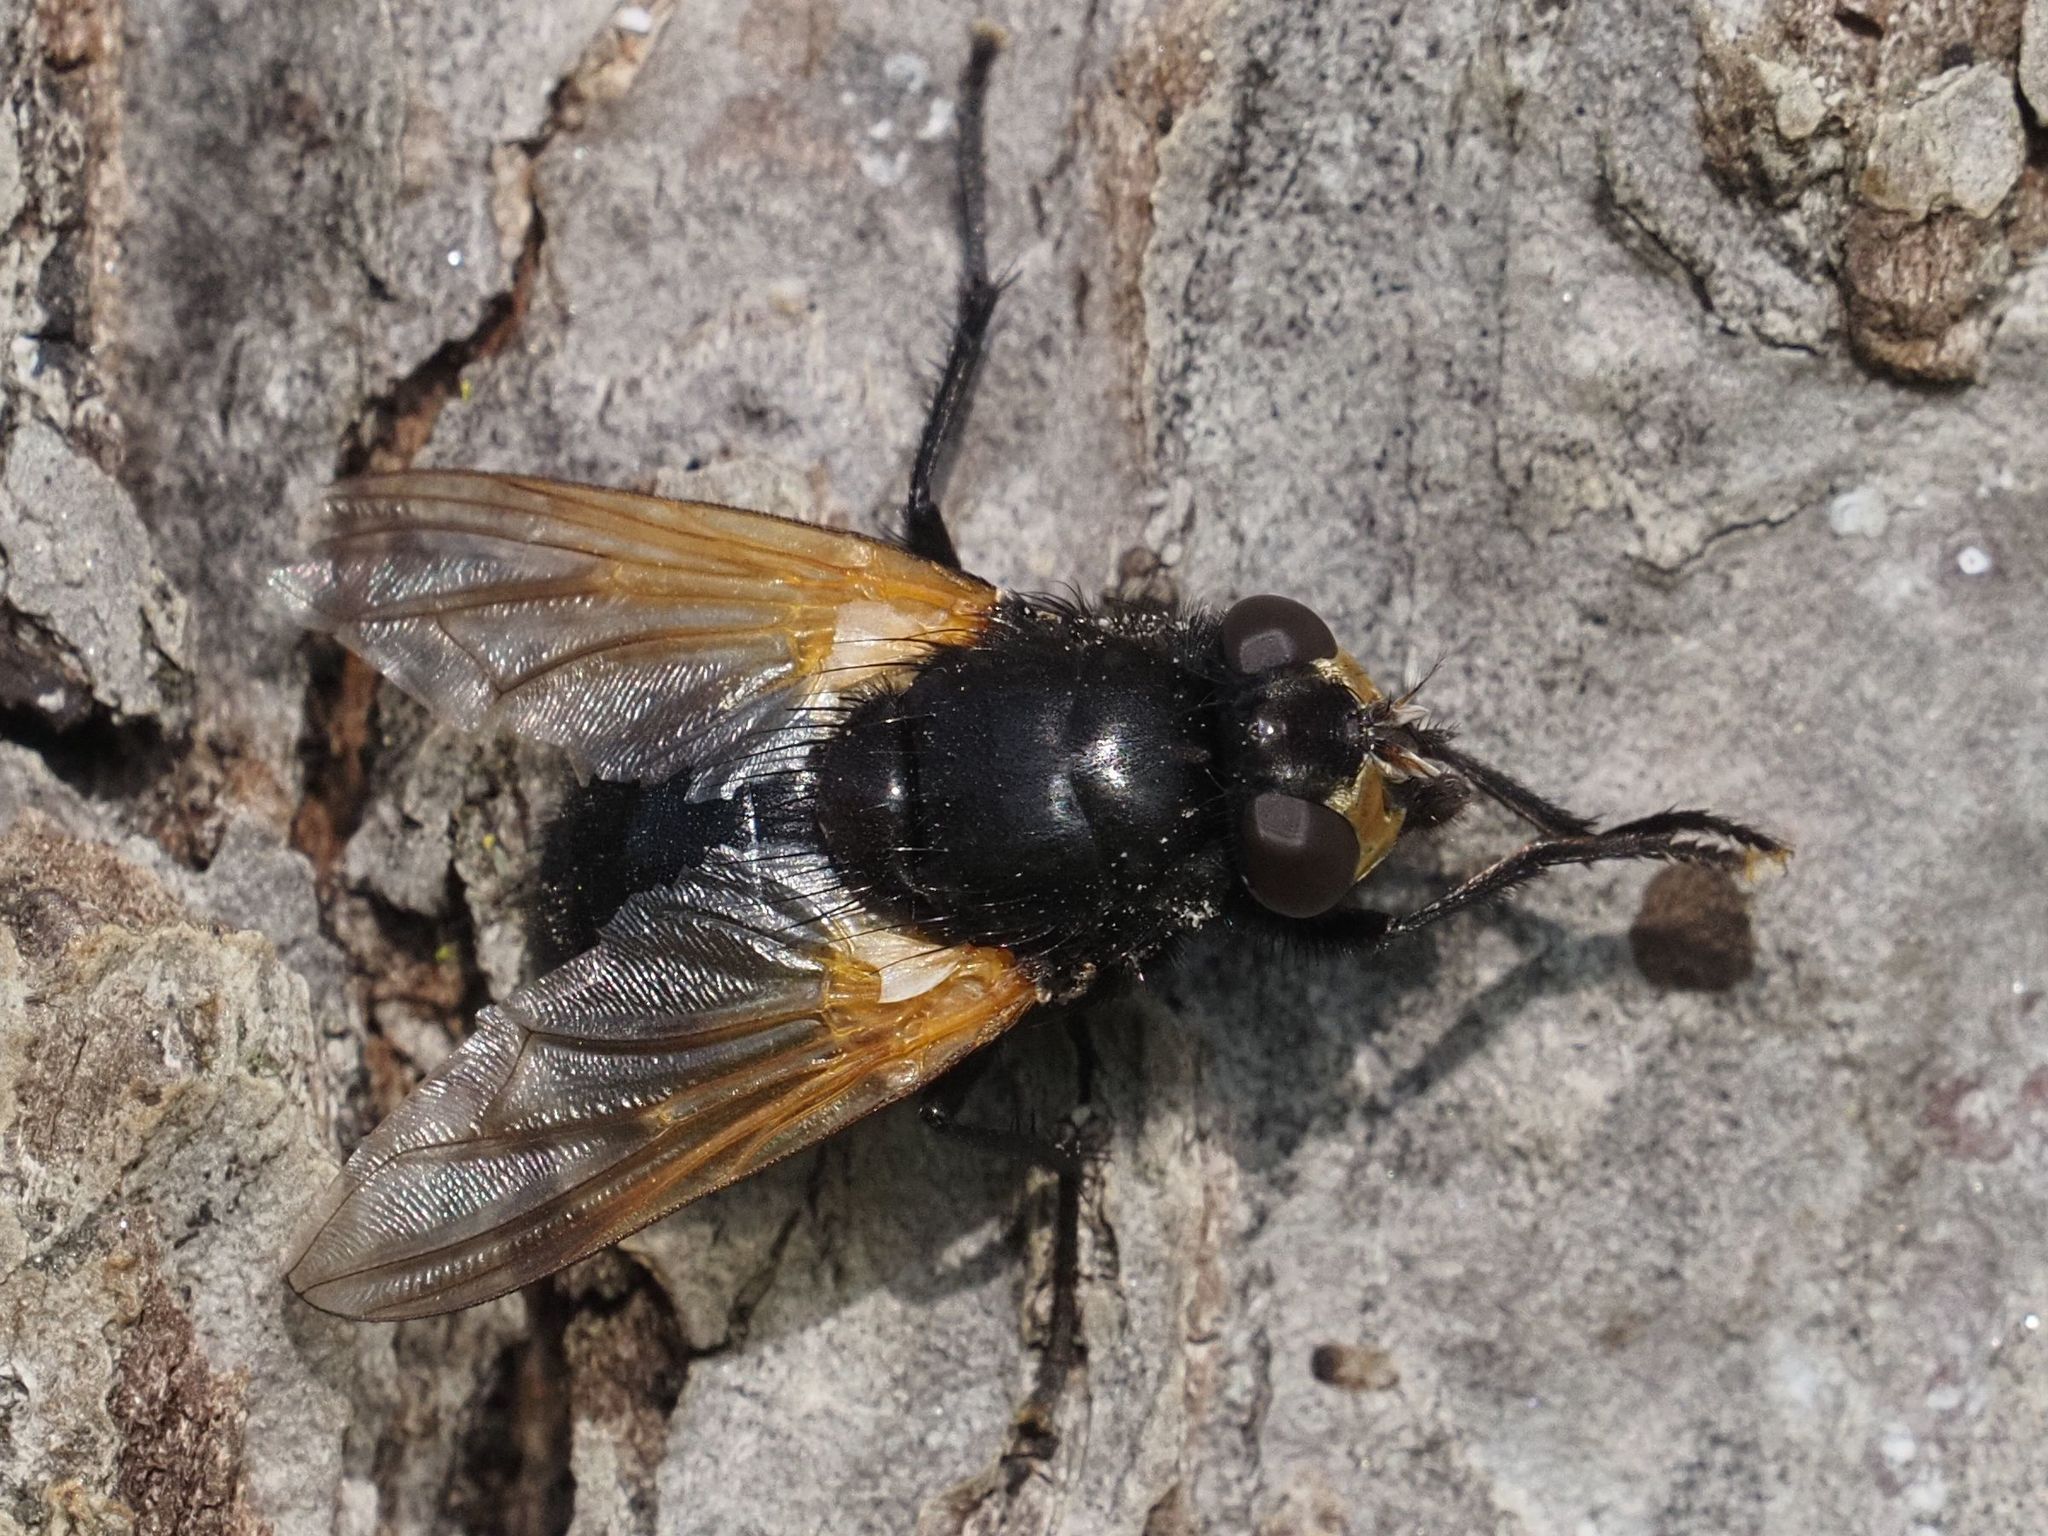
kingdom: Animalia
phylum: Arthropoda
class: Insecta
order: Diptera
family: Muscidae
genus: Mesembrina
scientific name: Mesembrina meridiana
